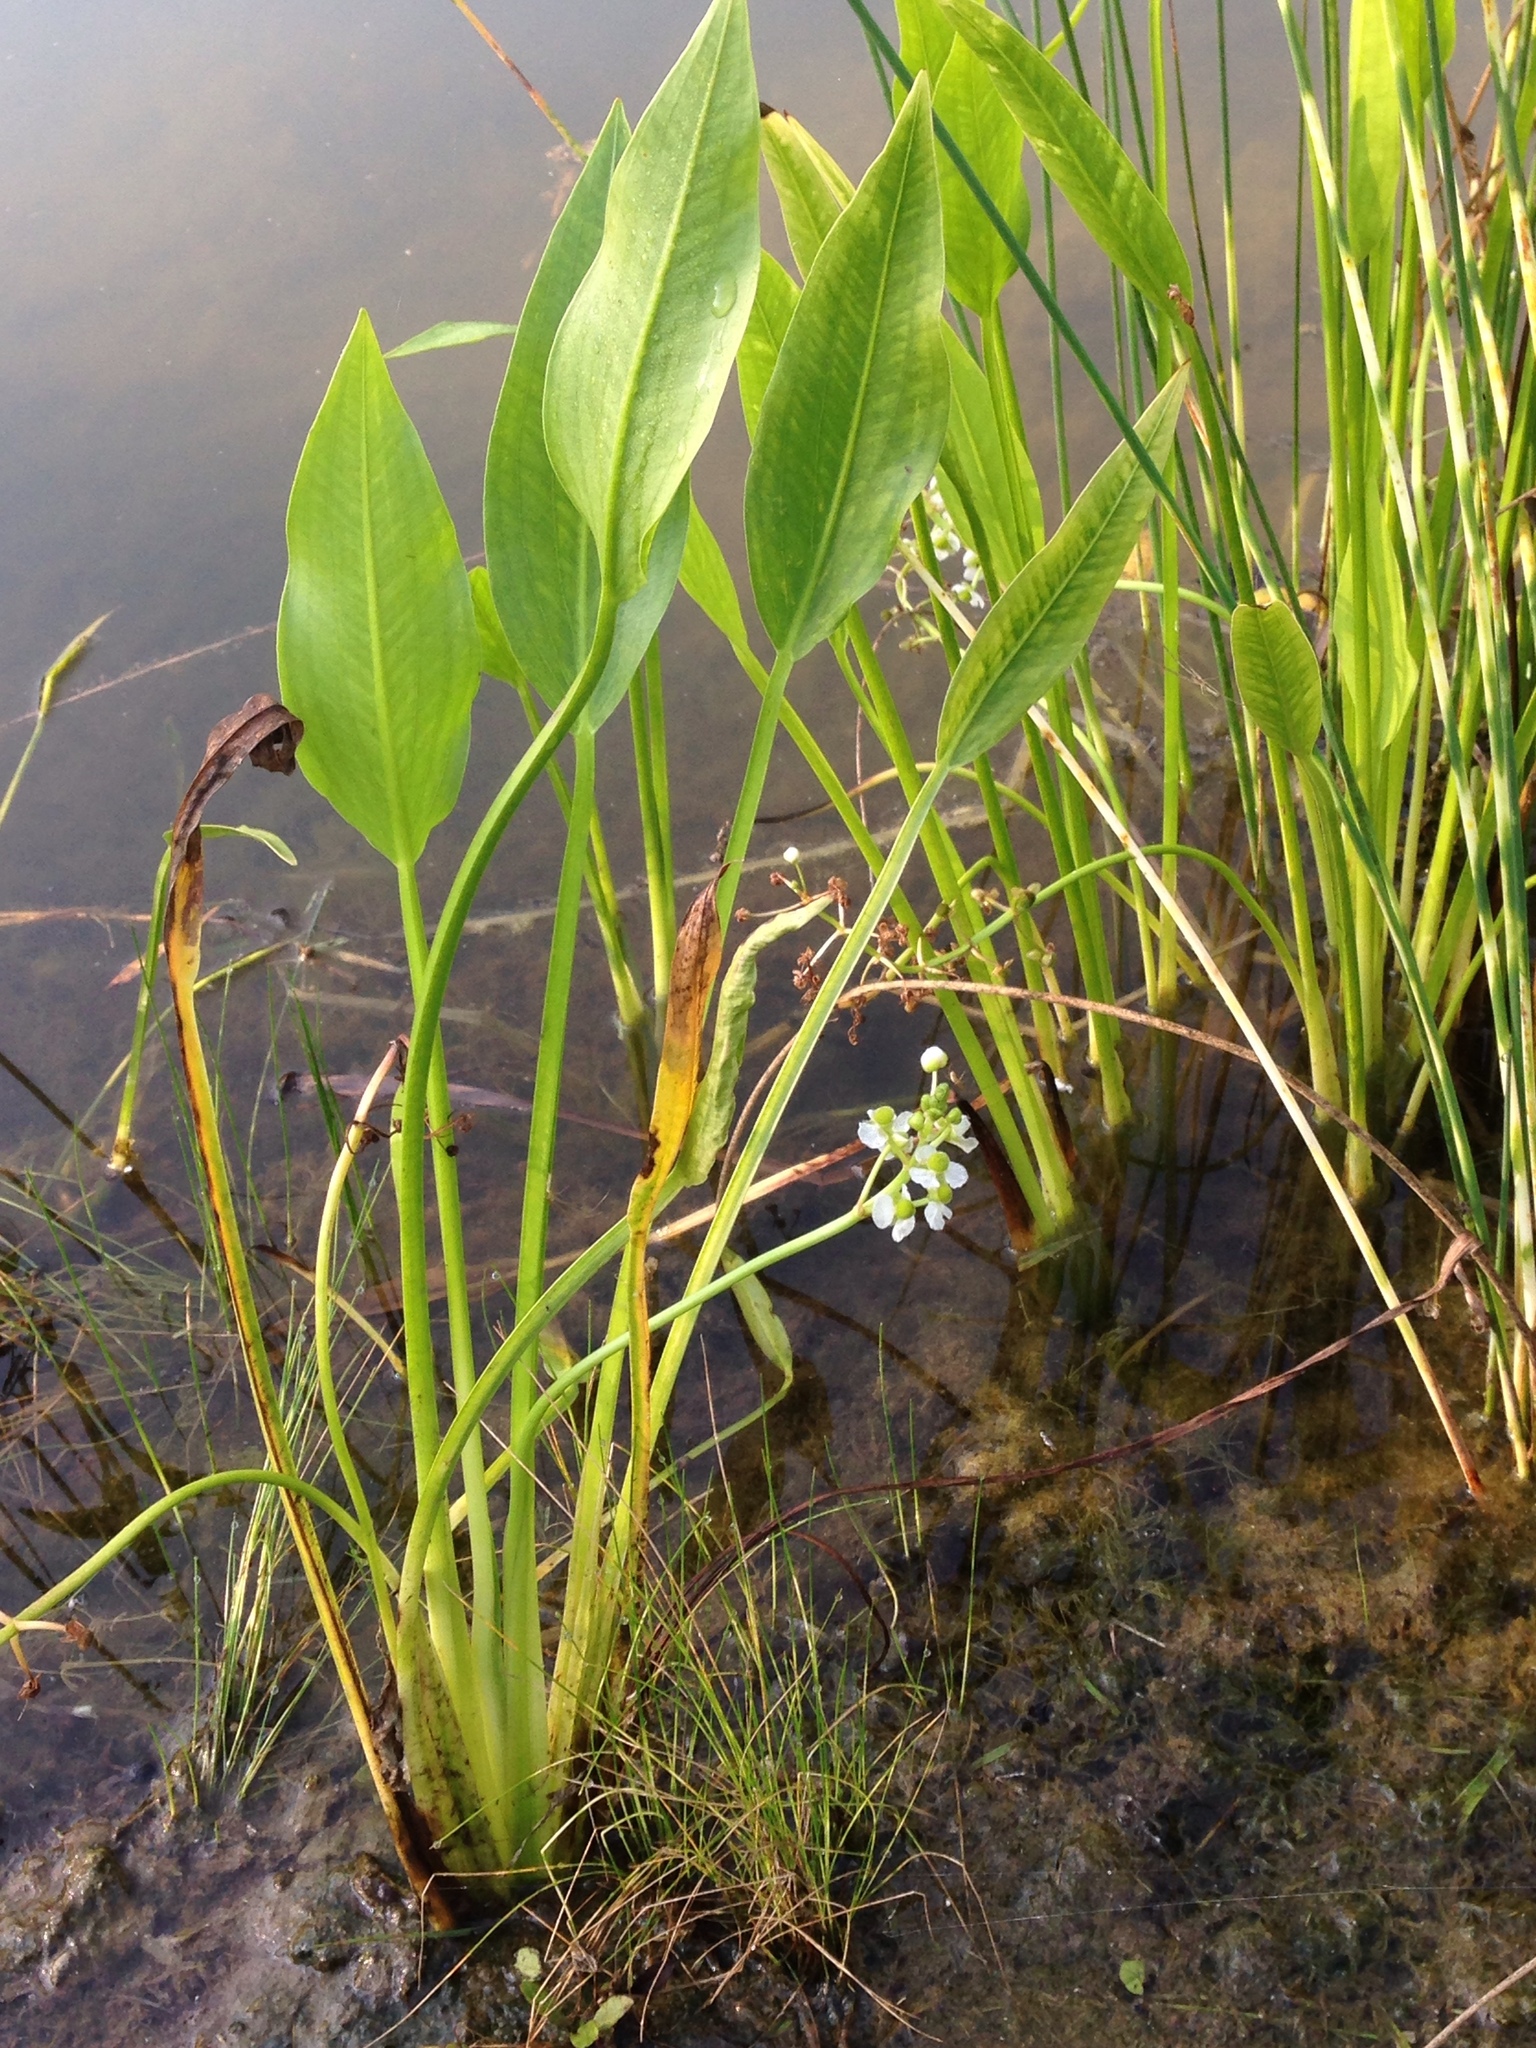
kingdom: Plantae
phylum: Tracheophyta
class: Liliopsida
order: Alismatales
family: Alismataceae
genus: Sagittaria
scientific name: Sagittaria platyphylla
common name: Broad-leaf arrowhead
